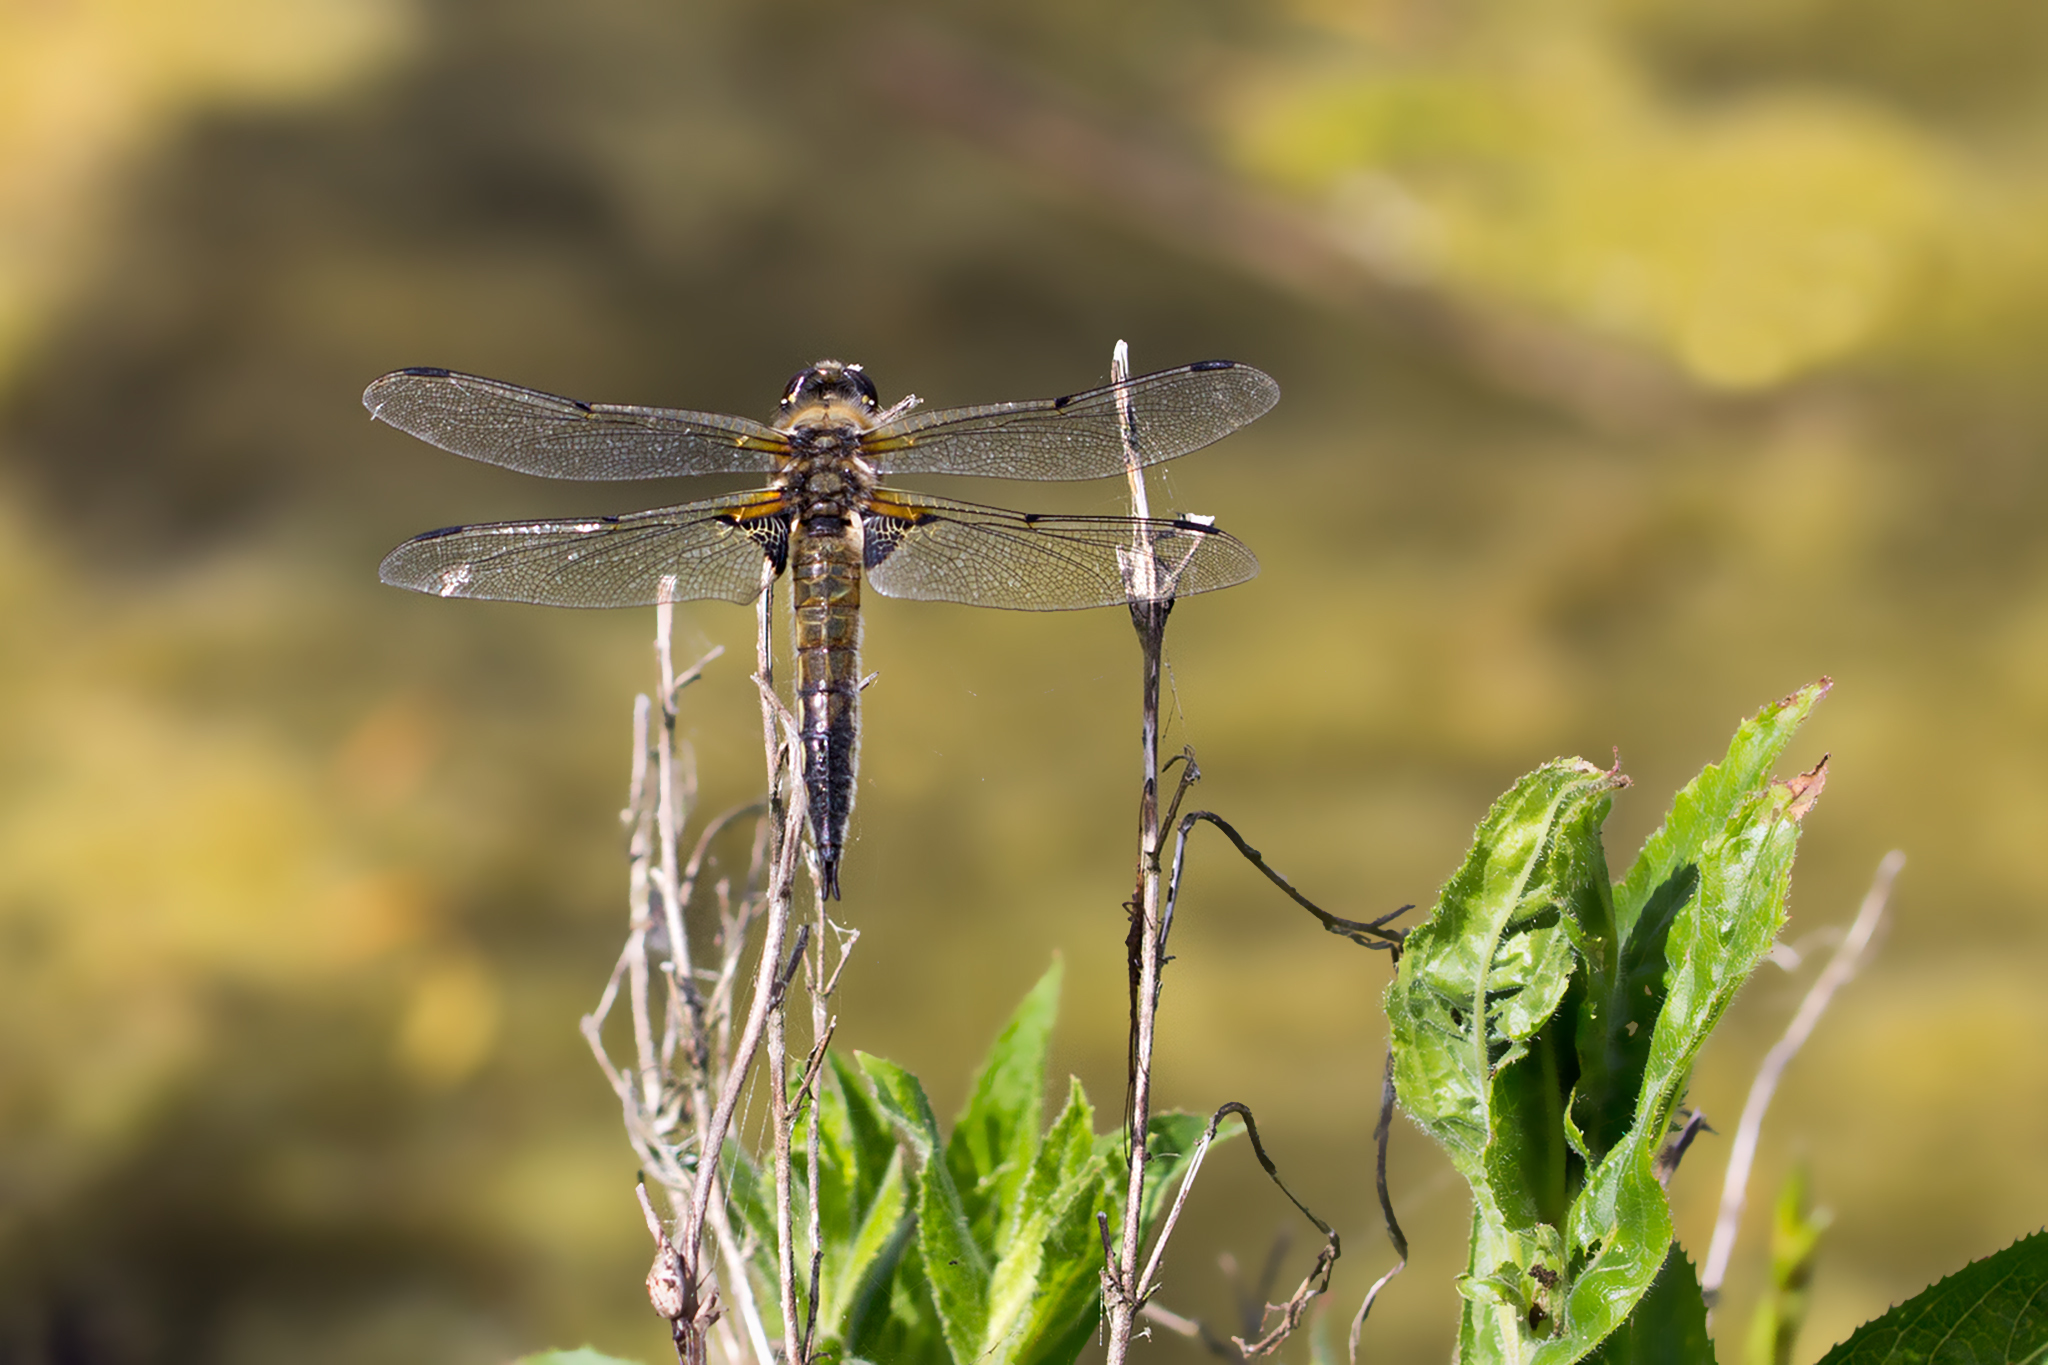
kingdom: Animalia
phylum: Arthropoda
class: Insecta
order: Odonata
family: Libellulidae
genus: Libellula
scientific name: Libellula quadrimaculata
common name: Four-spotted chaser
